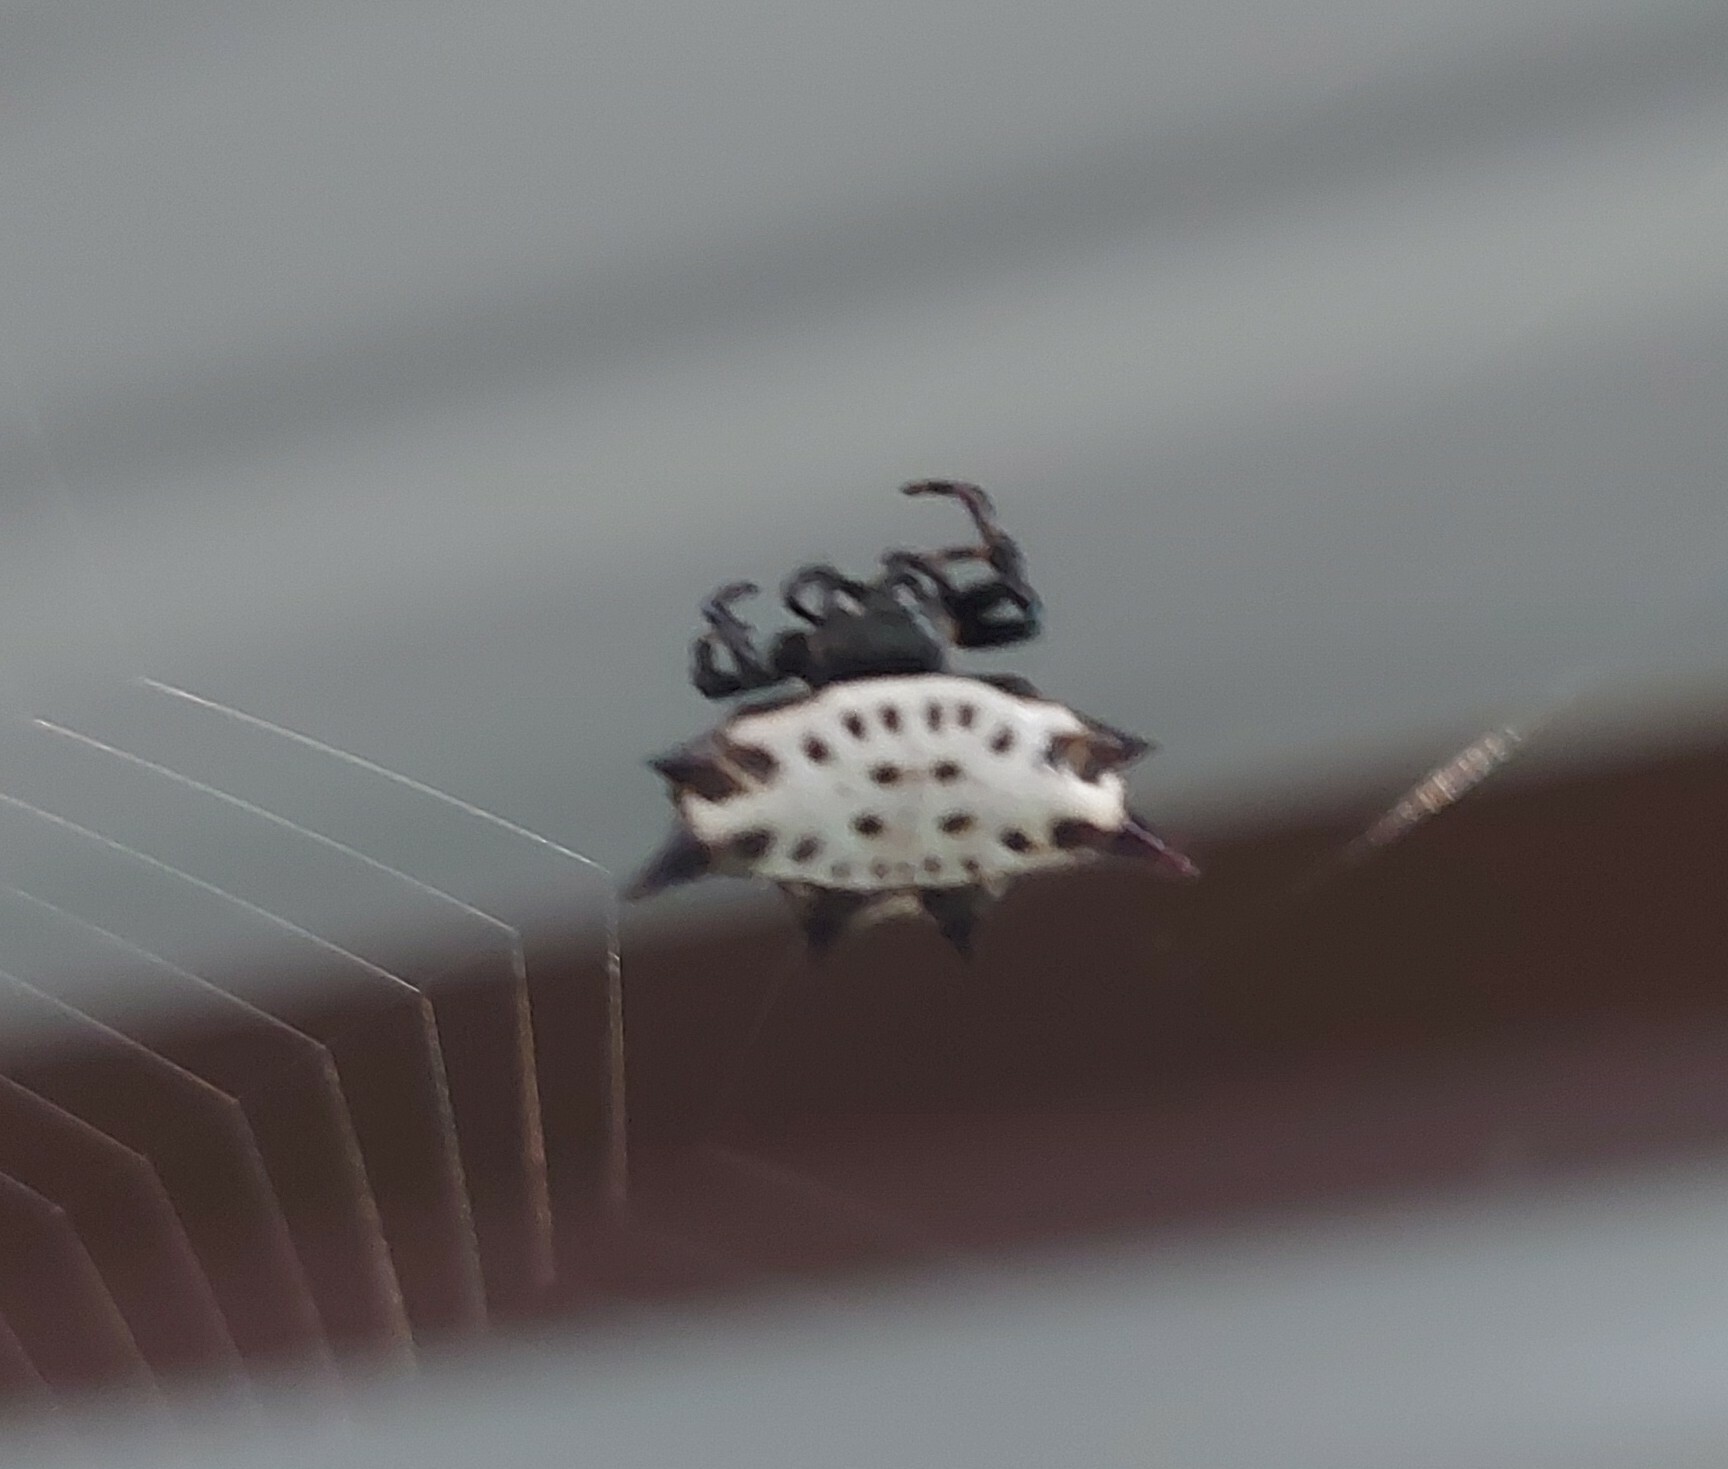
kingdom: Animalia
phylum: Arthropoda
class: Arachnida
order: Araneae
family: Araneidae
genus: Gasteracantha
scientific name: Gasteracantha cancriformis
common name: Orb weavers
